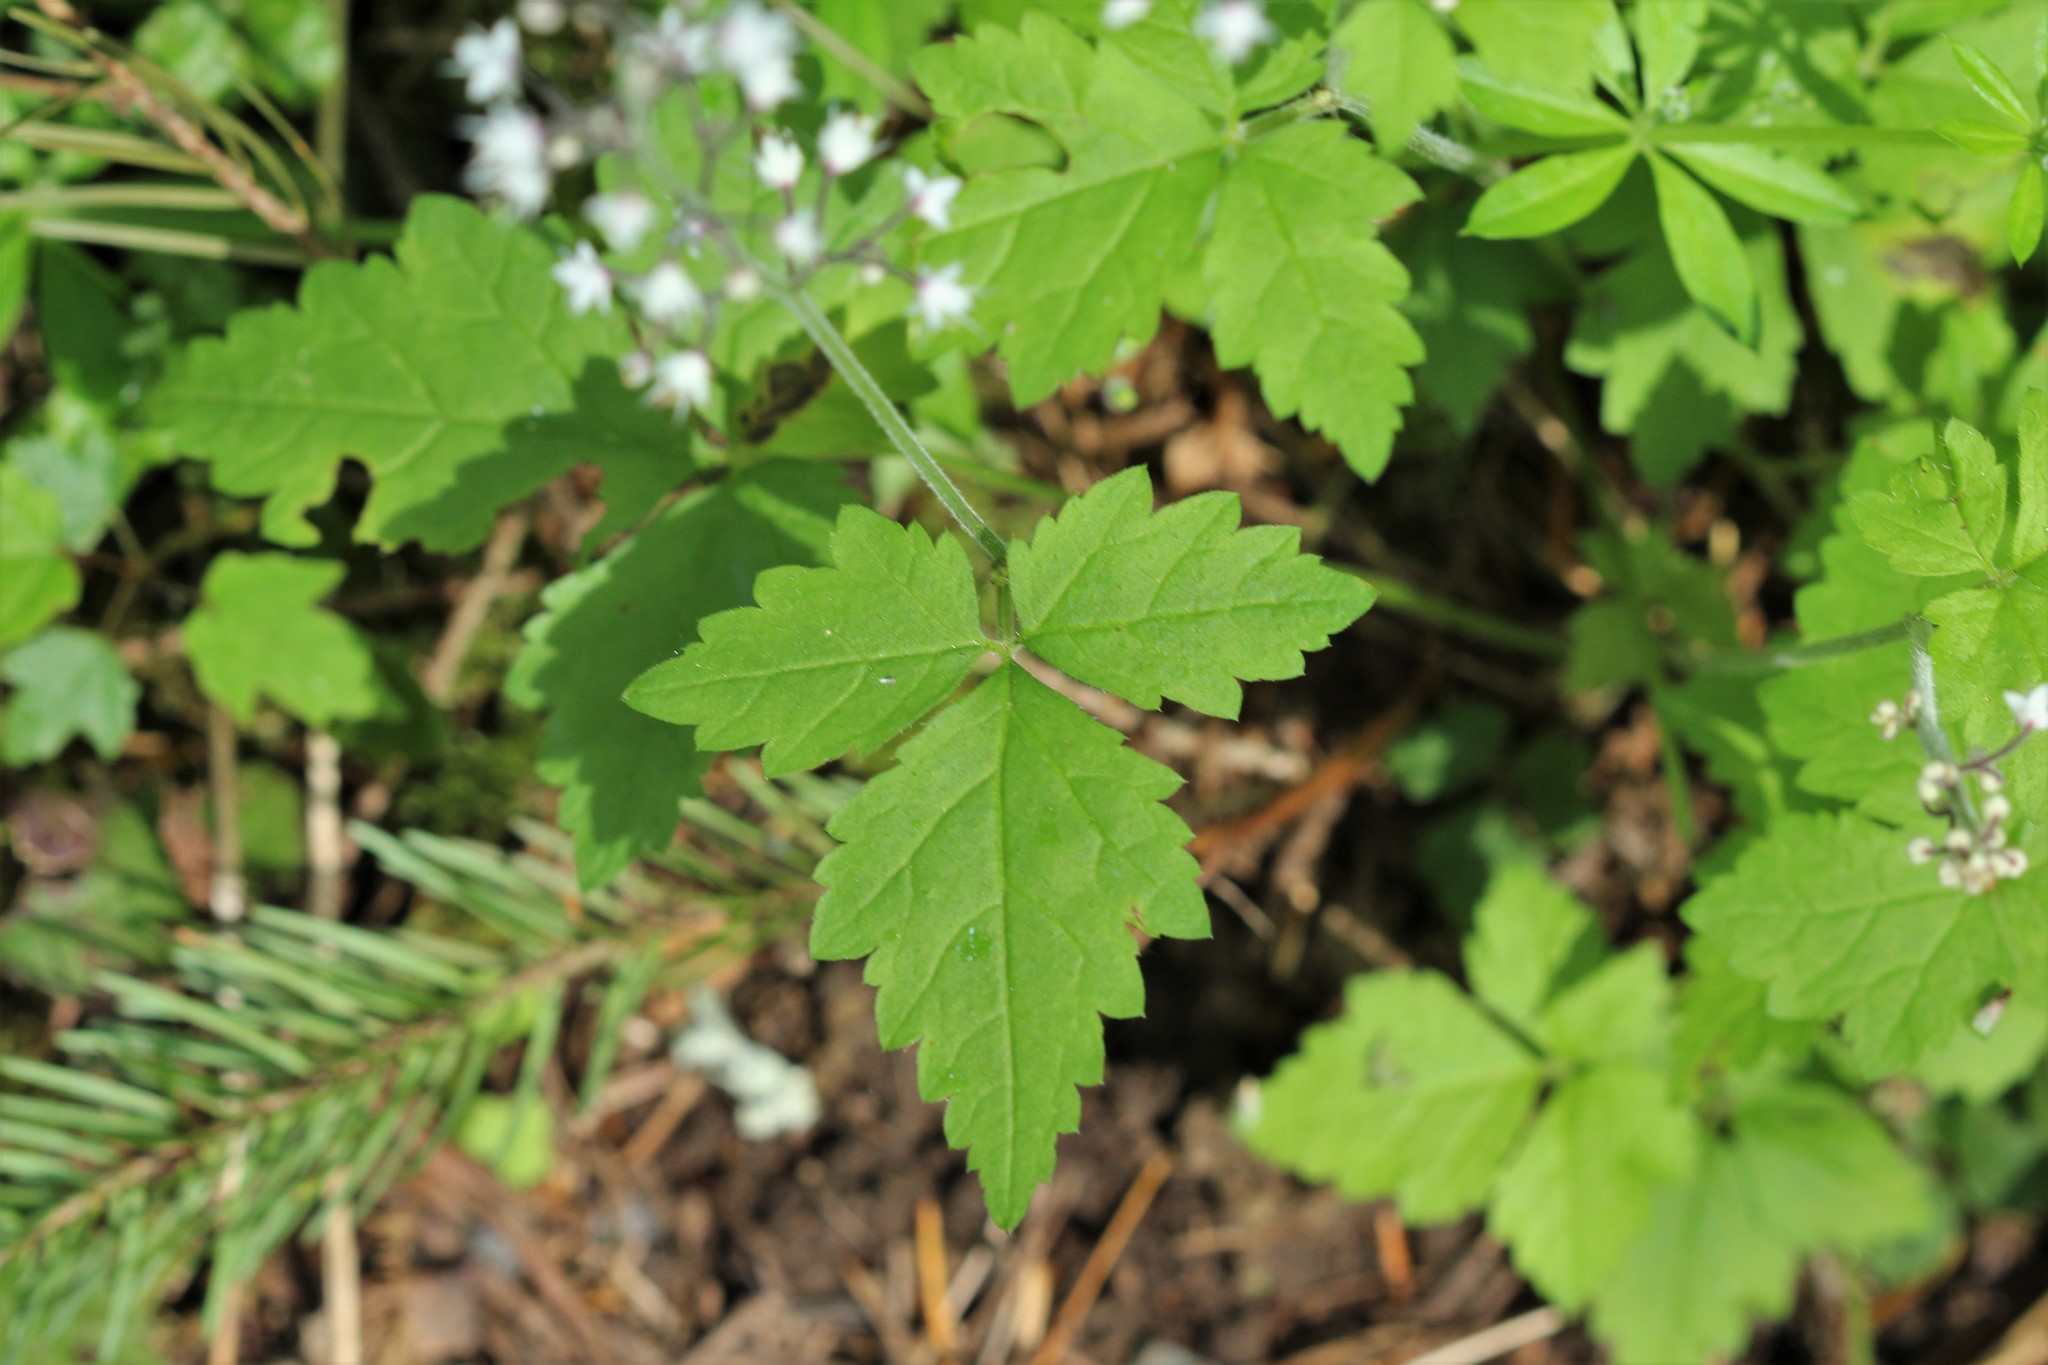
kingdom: Plantae
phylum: Tracheophyta
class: Magnoliopsida
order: Saxifragales
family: Saxifragaceae
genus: Tiarella
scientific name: Tiarella trifoliata
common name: Sugar-scoop
